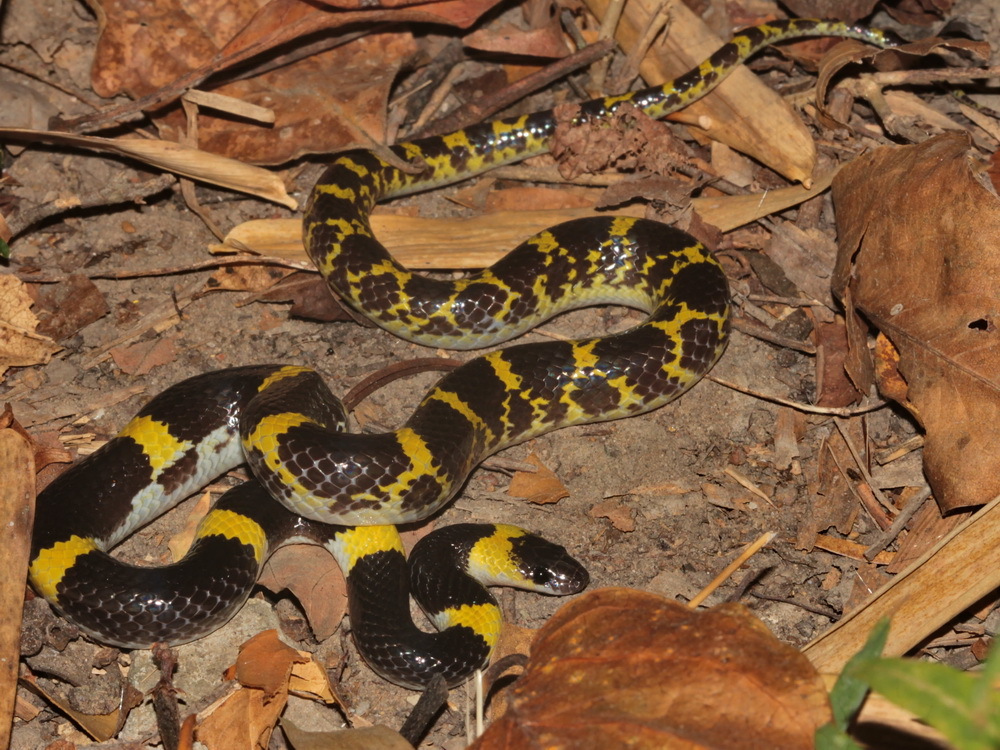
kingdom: Animalia
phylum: Chordata
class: Squamata
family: Colubridae
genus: Lycodon
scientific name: Lycodon laoensis
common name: Laotian wolf snake
